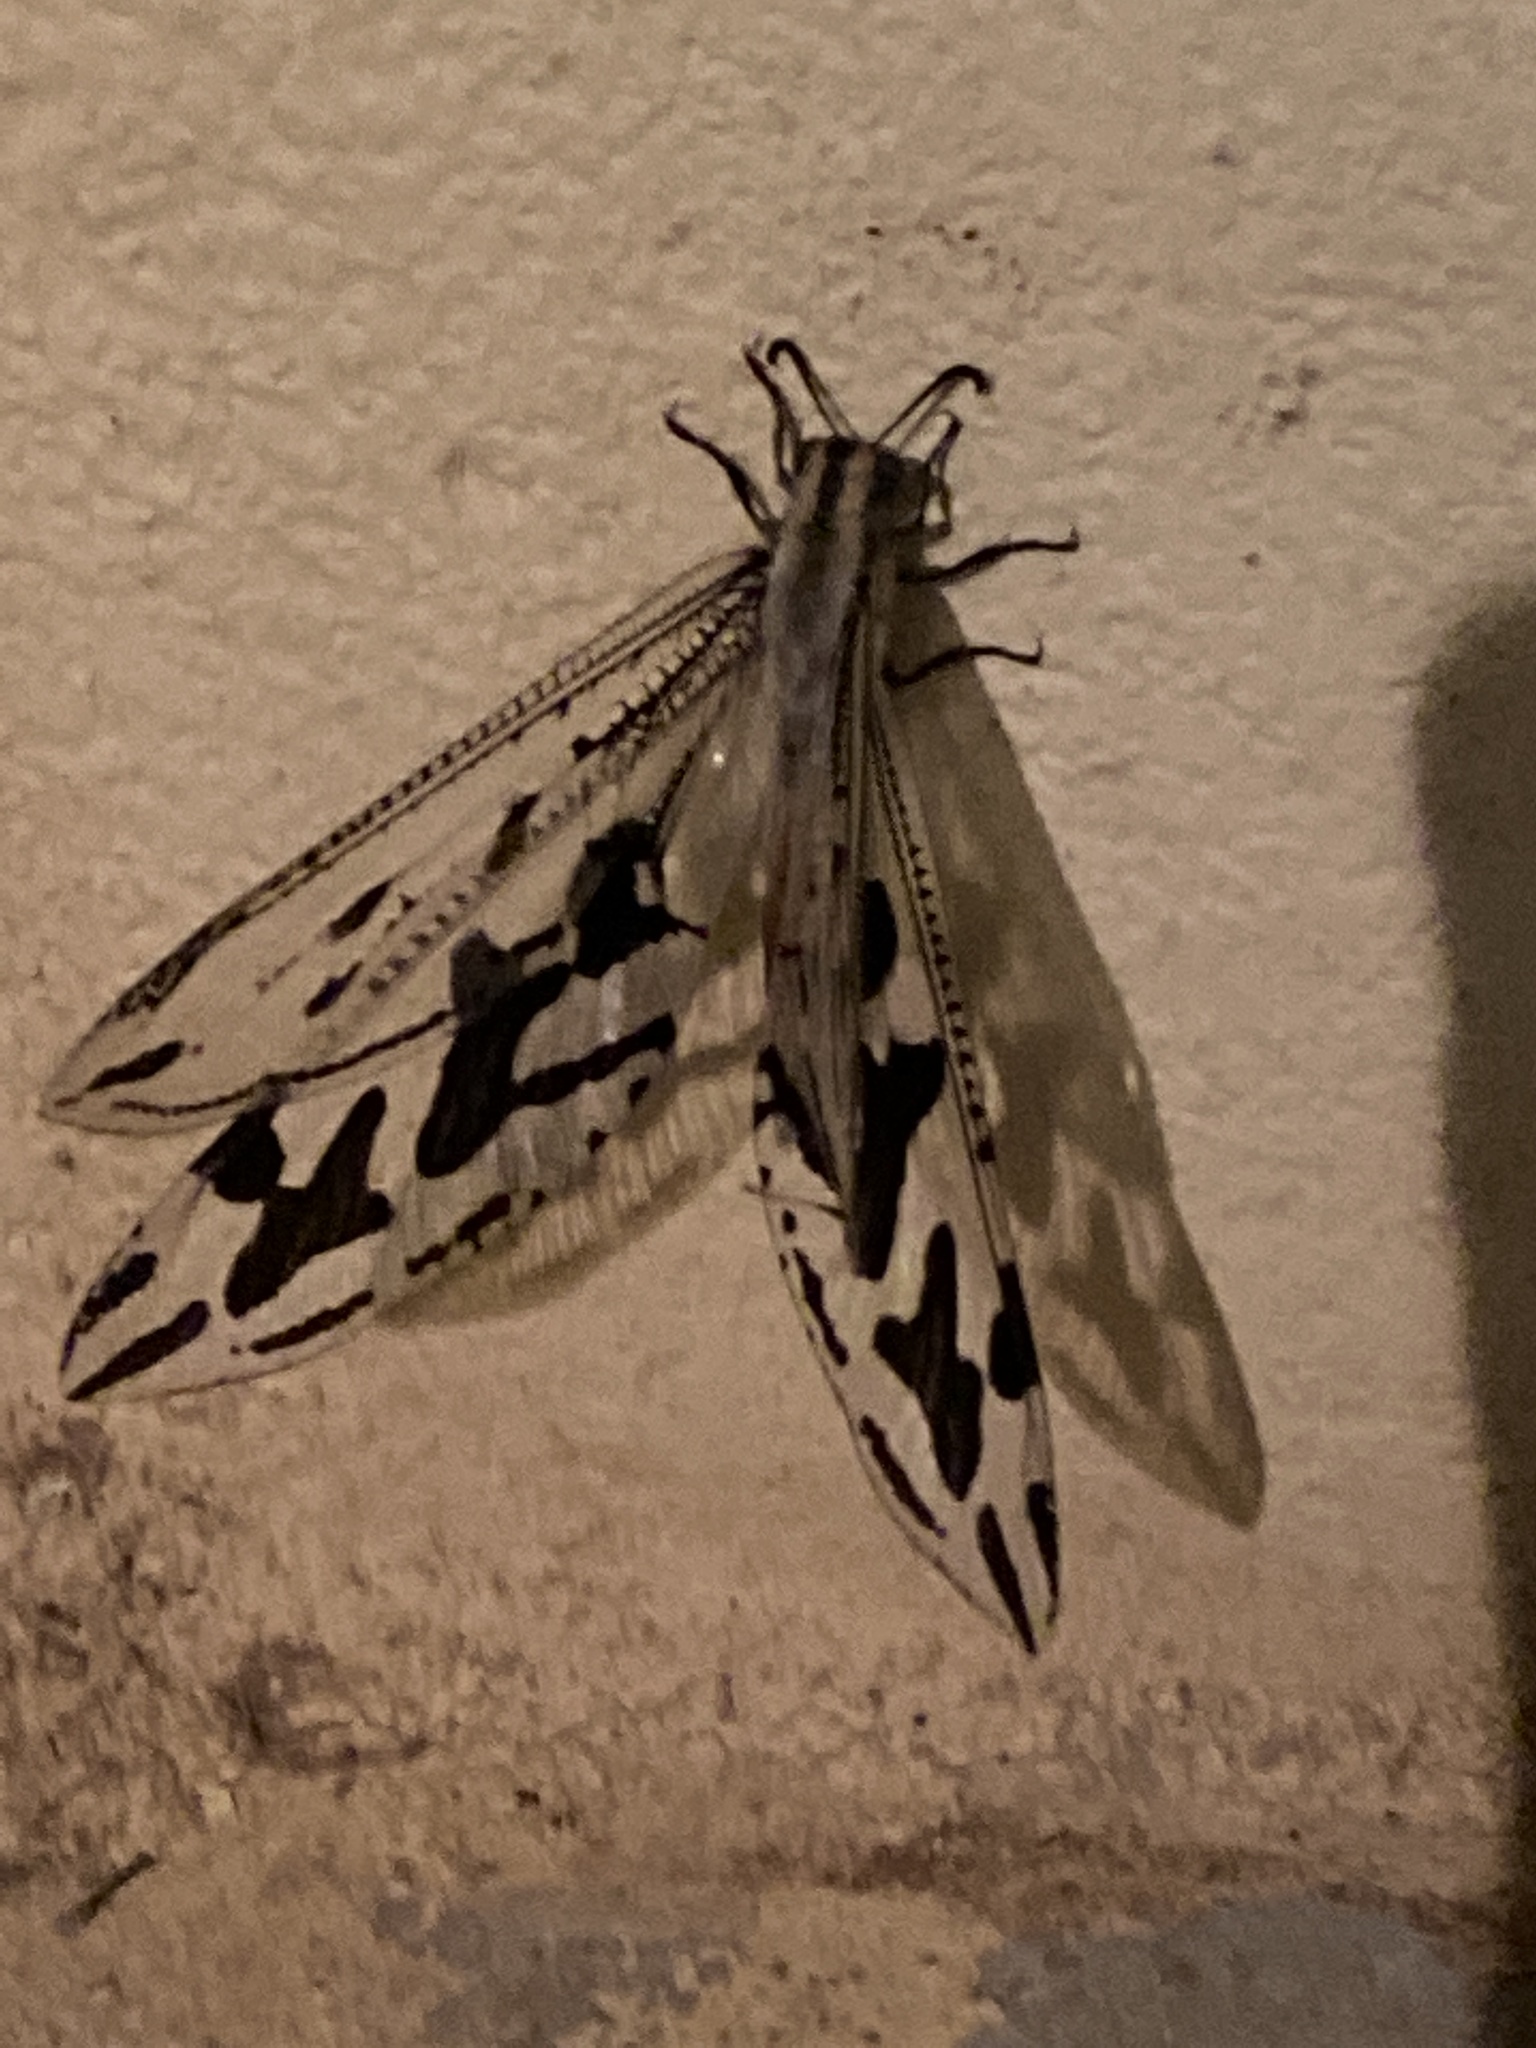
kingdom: Animalia
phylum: Arthropoda
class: Insecta
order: Neuroptera
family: Myrmeleontidae
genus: Palpares
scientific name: Palpares immensus
